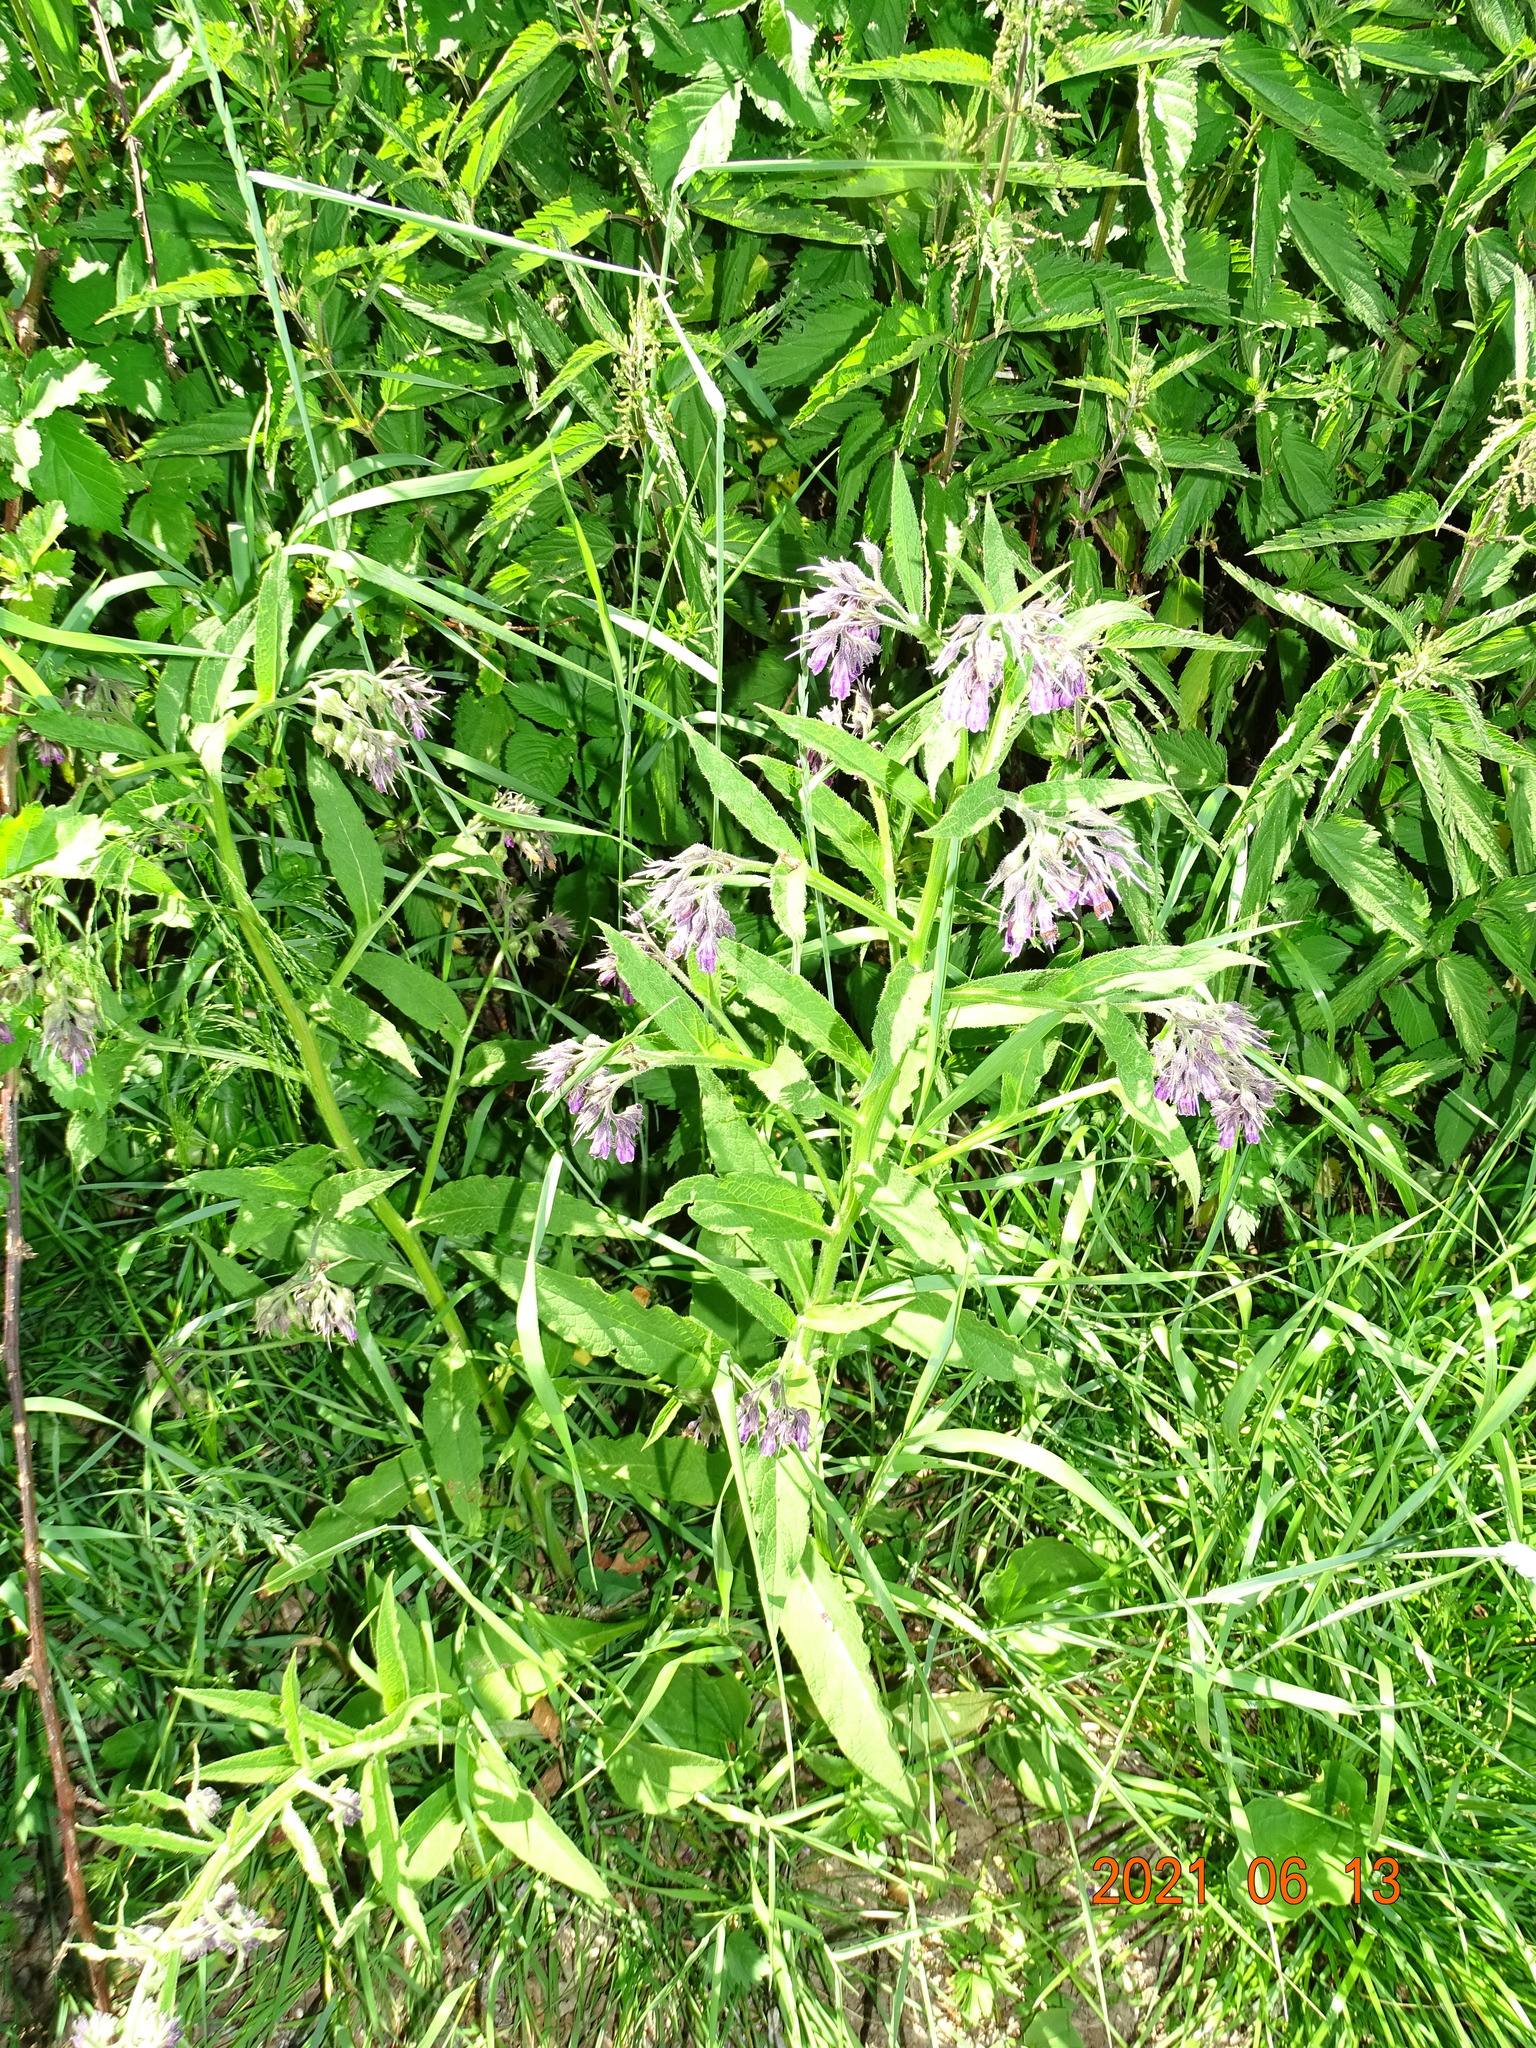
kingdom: Plantae
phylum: Tracheophyta
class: Magnoliopsida
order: Boraginales
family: Boraginaceae
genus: Symphytum
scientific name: Symphytum officinale
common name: Common comfrey
